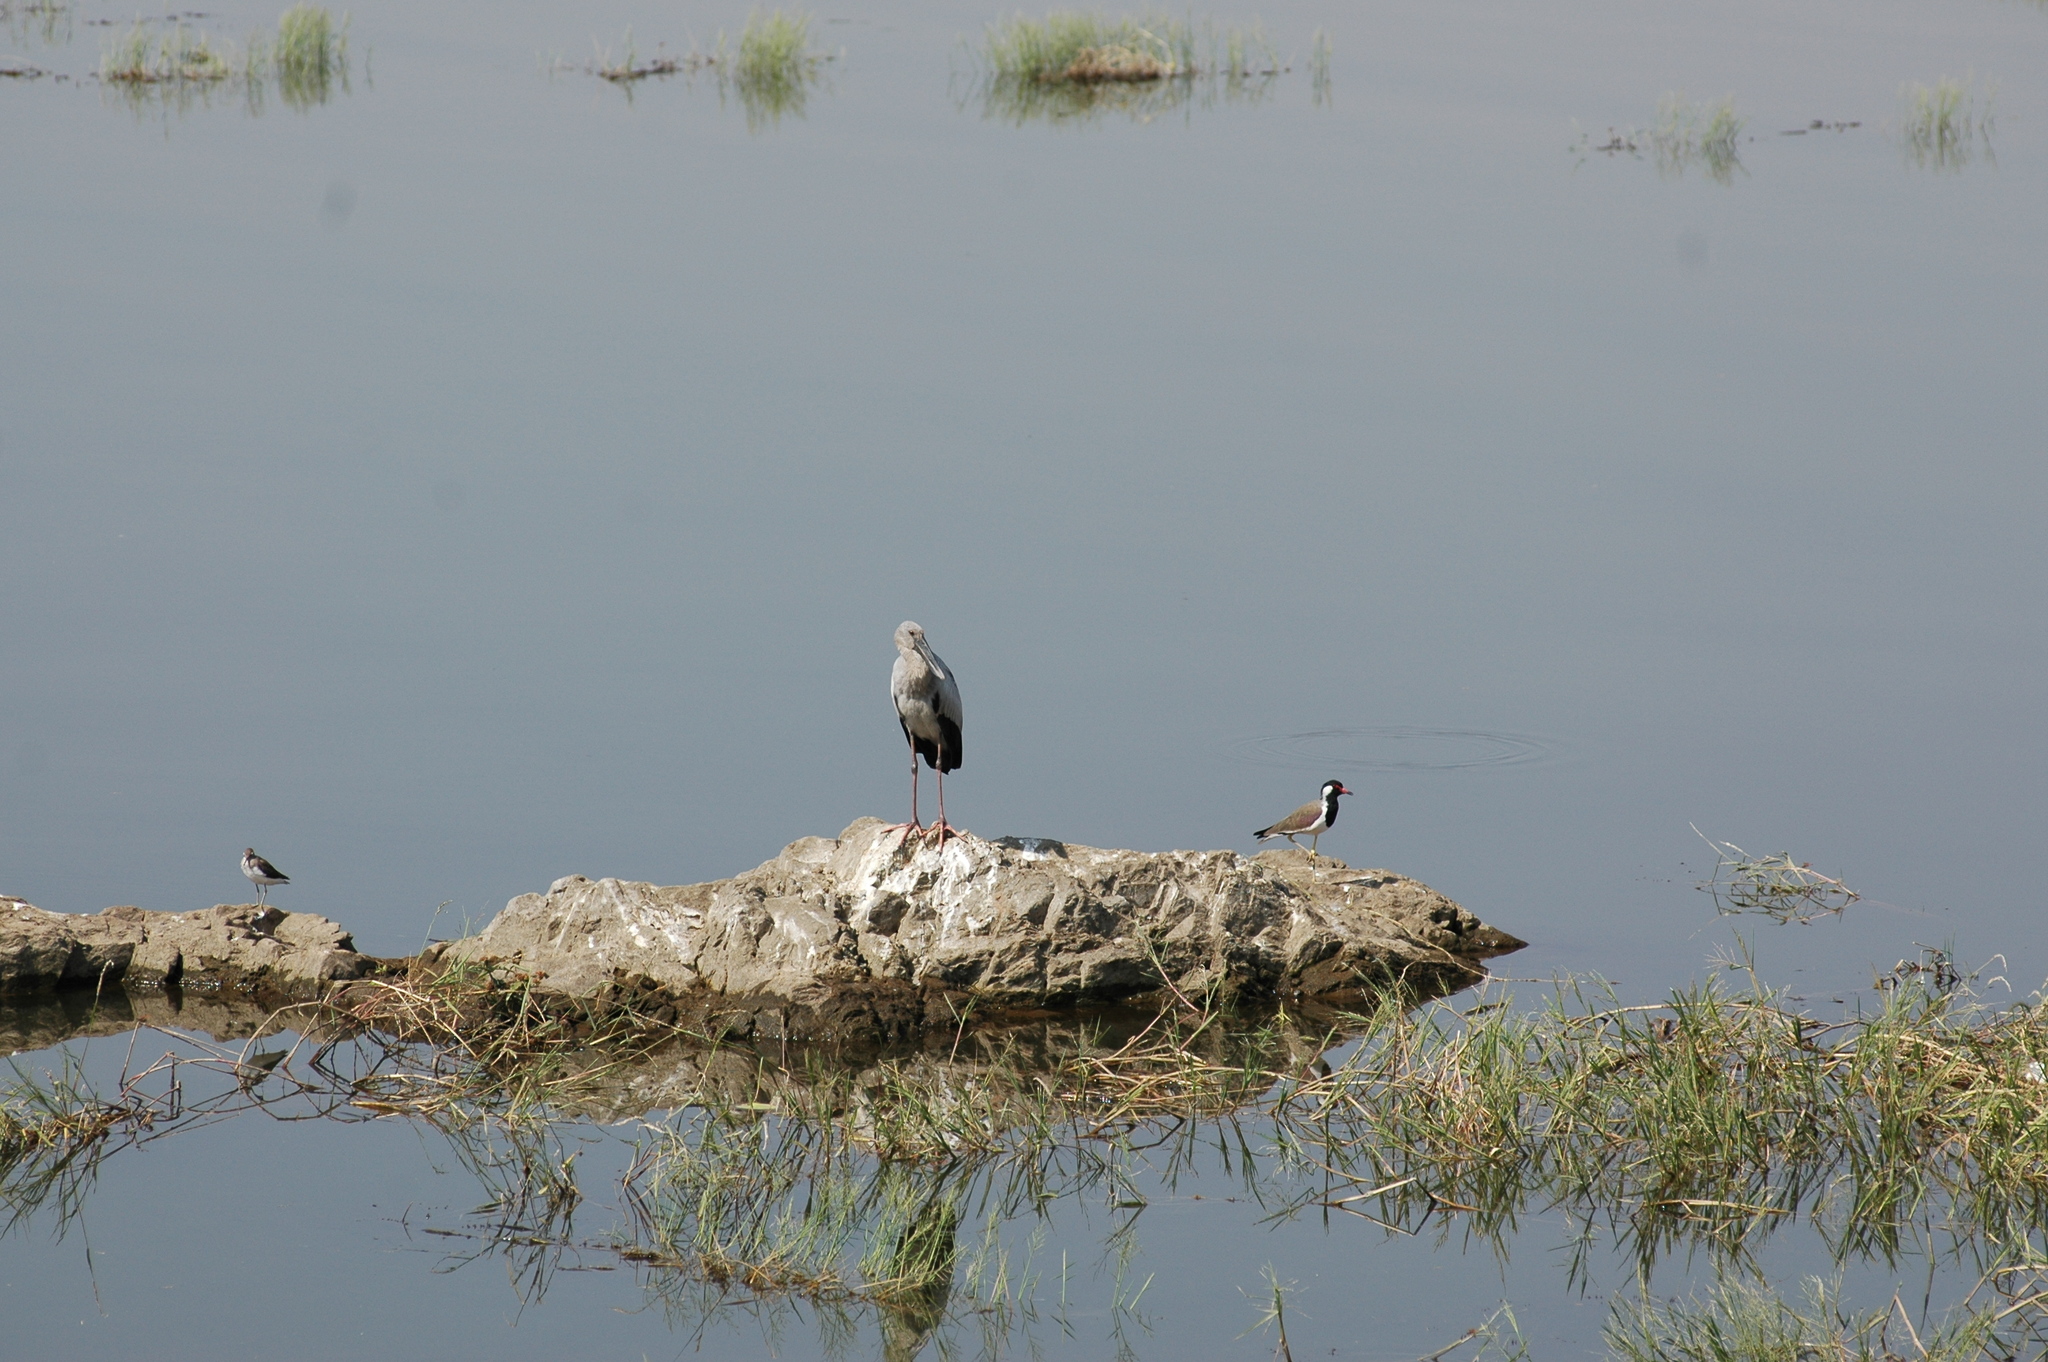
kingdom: Animalia
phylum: Chordata
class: Aves
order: Ciconiiformes
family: Ciconiidae
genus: Anastomus
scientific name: Anastomus oscitans
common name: Asian openbill
